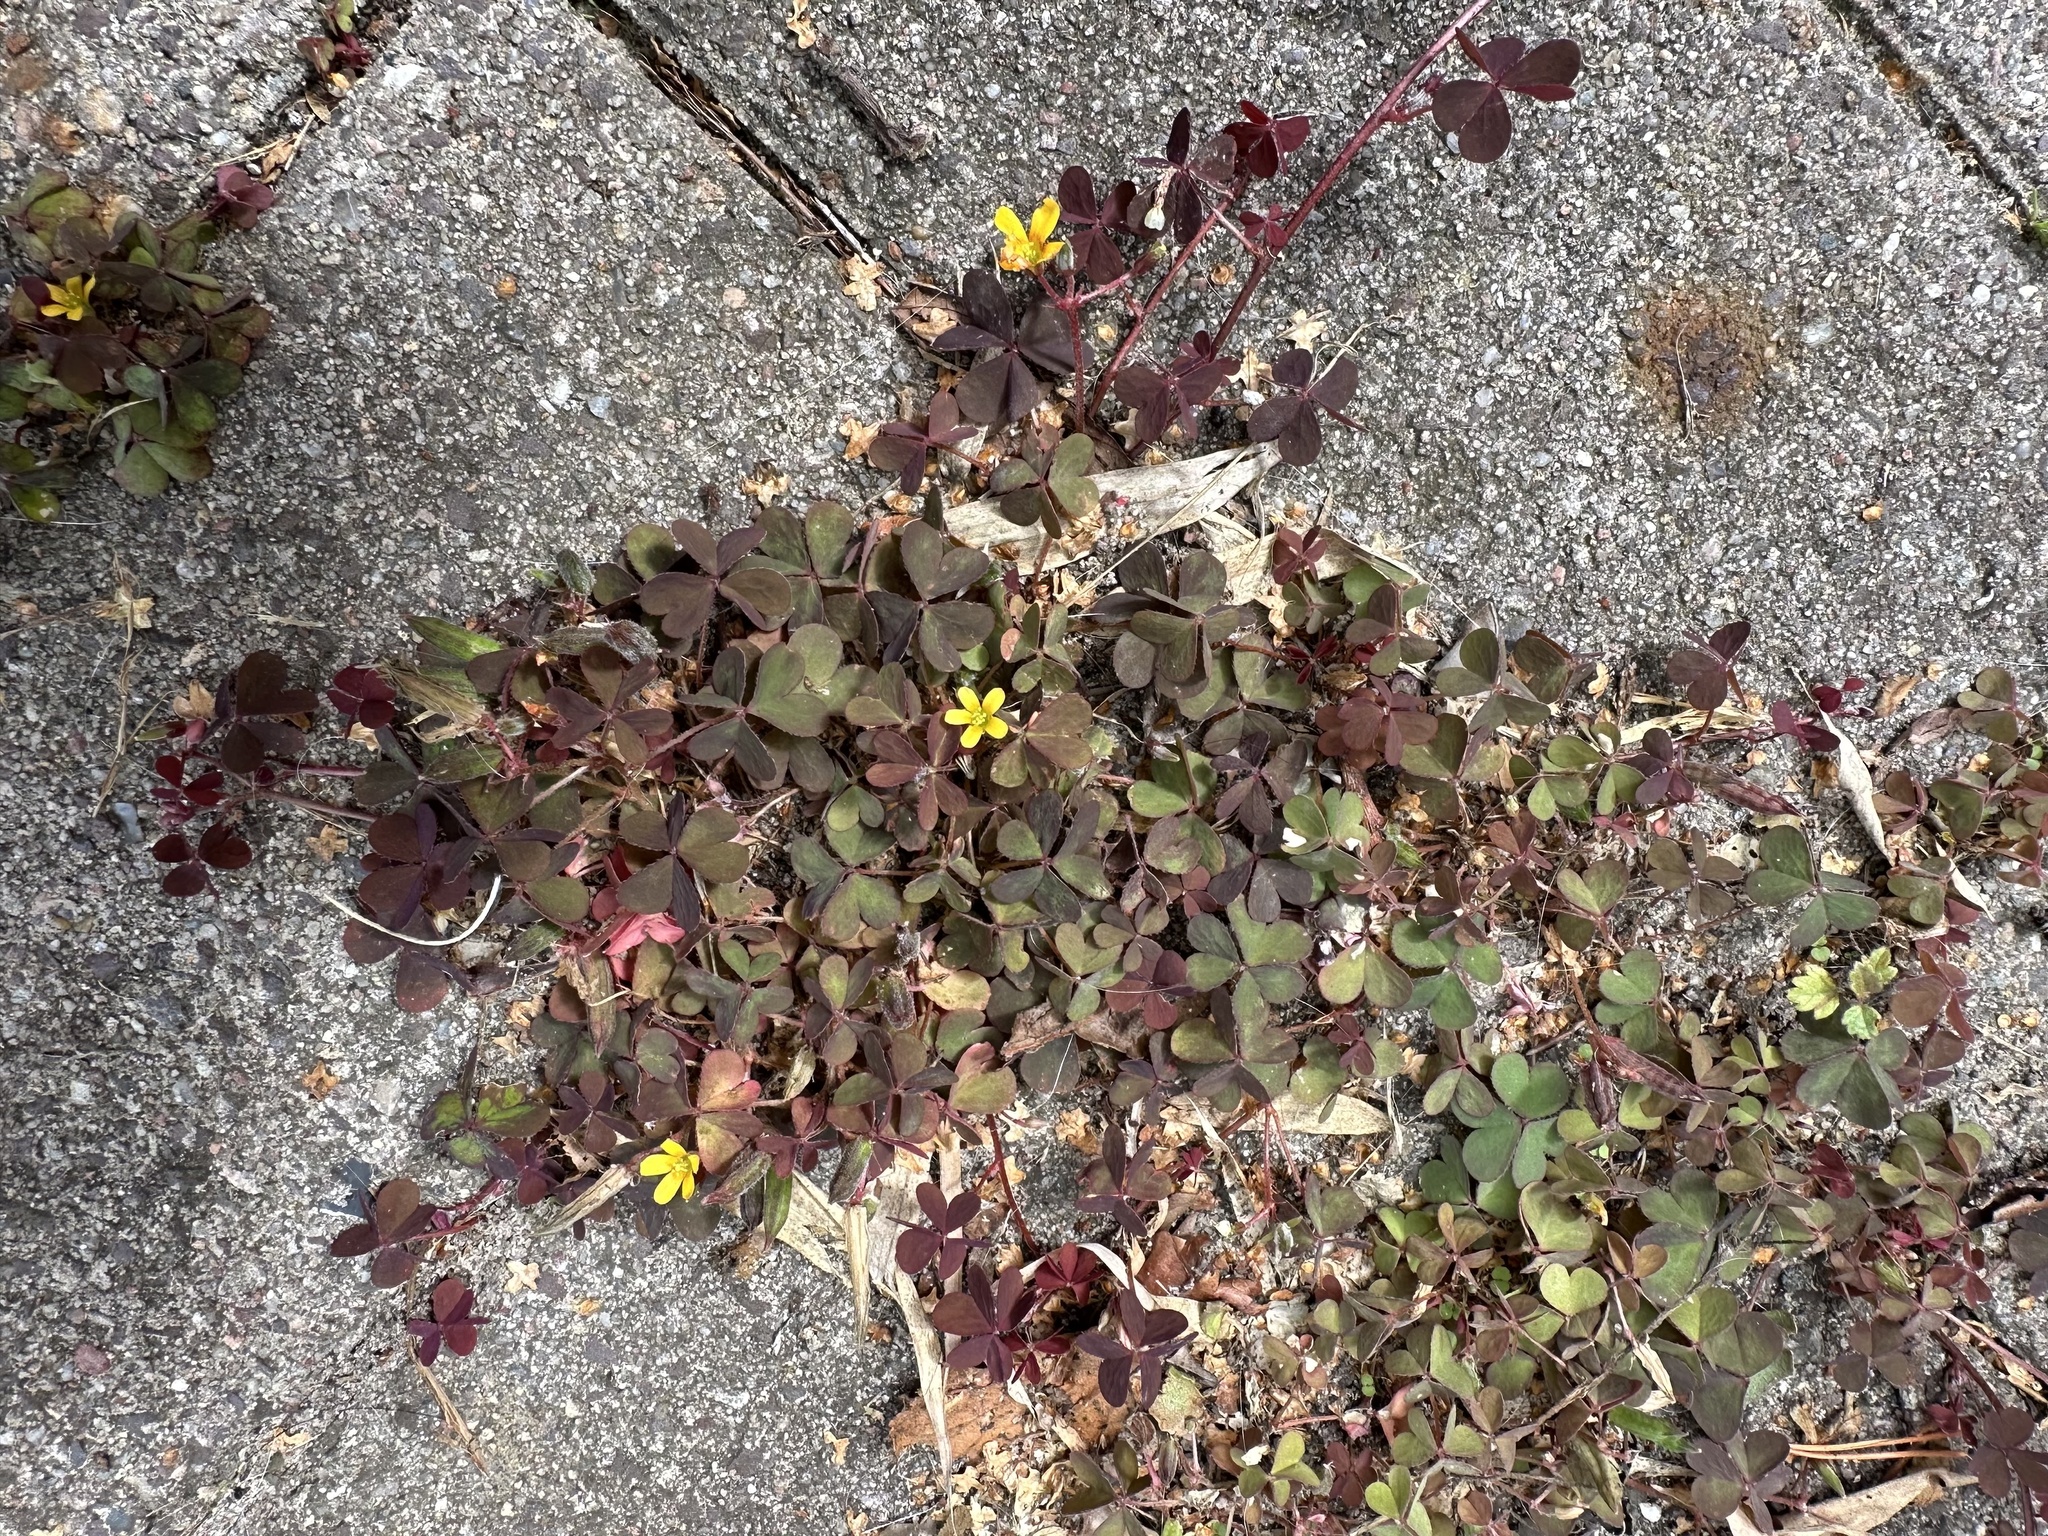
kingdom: Plantae
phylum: Tracheophyta
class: Magnoliopsida
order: Oxalidales
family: Oxalidaceae
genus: Oxalis
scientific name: Oxalis corniculata
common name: Procumbent yellow-sorrel
